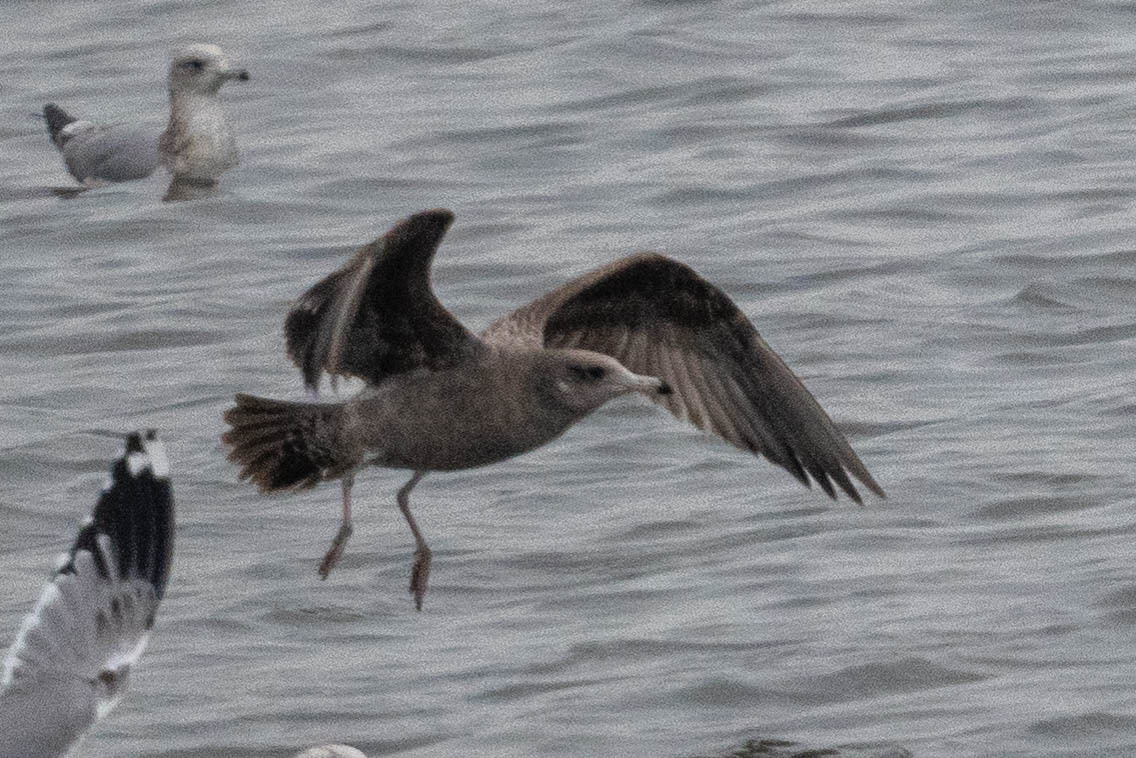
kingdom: Animalia
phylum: Chordata
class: Aves
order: Charadriiformes
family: Laridae
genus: Larus
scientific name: Larus californicus
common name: California gull
